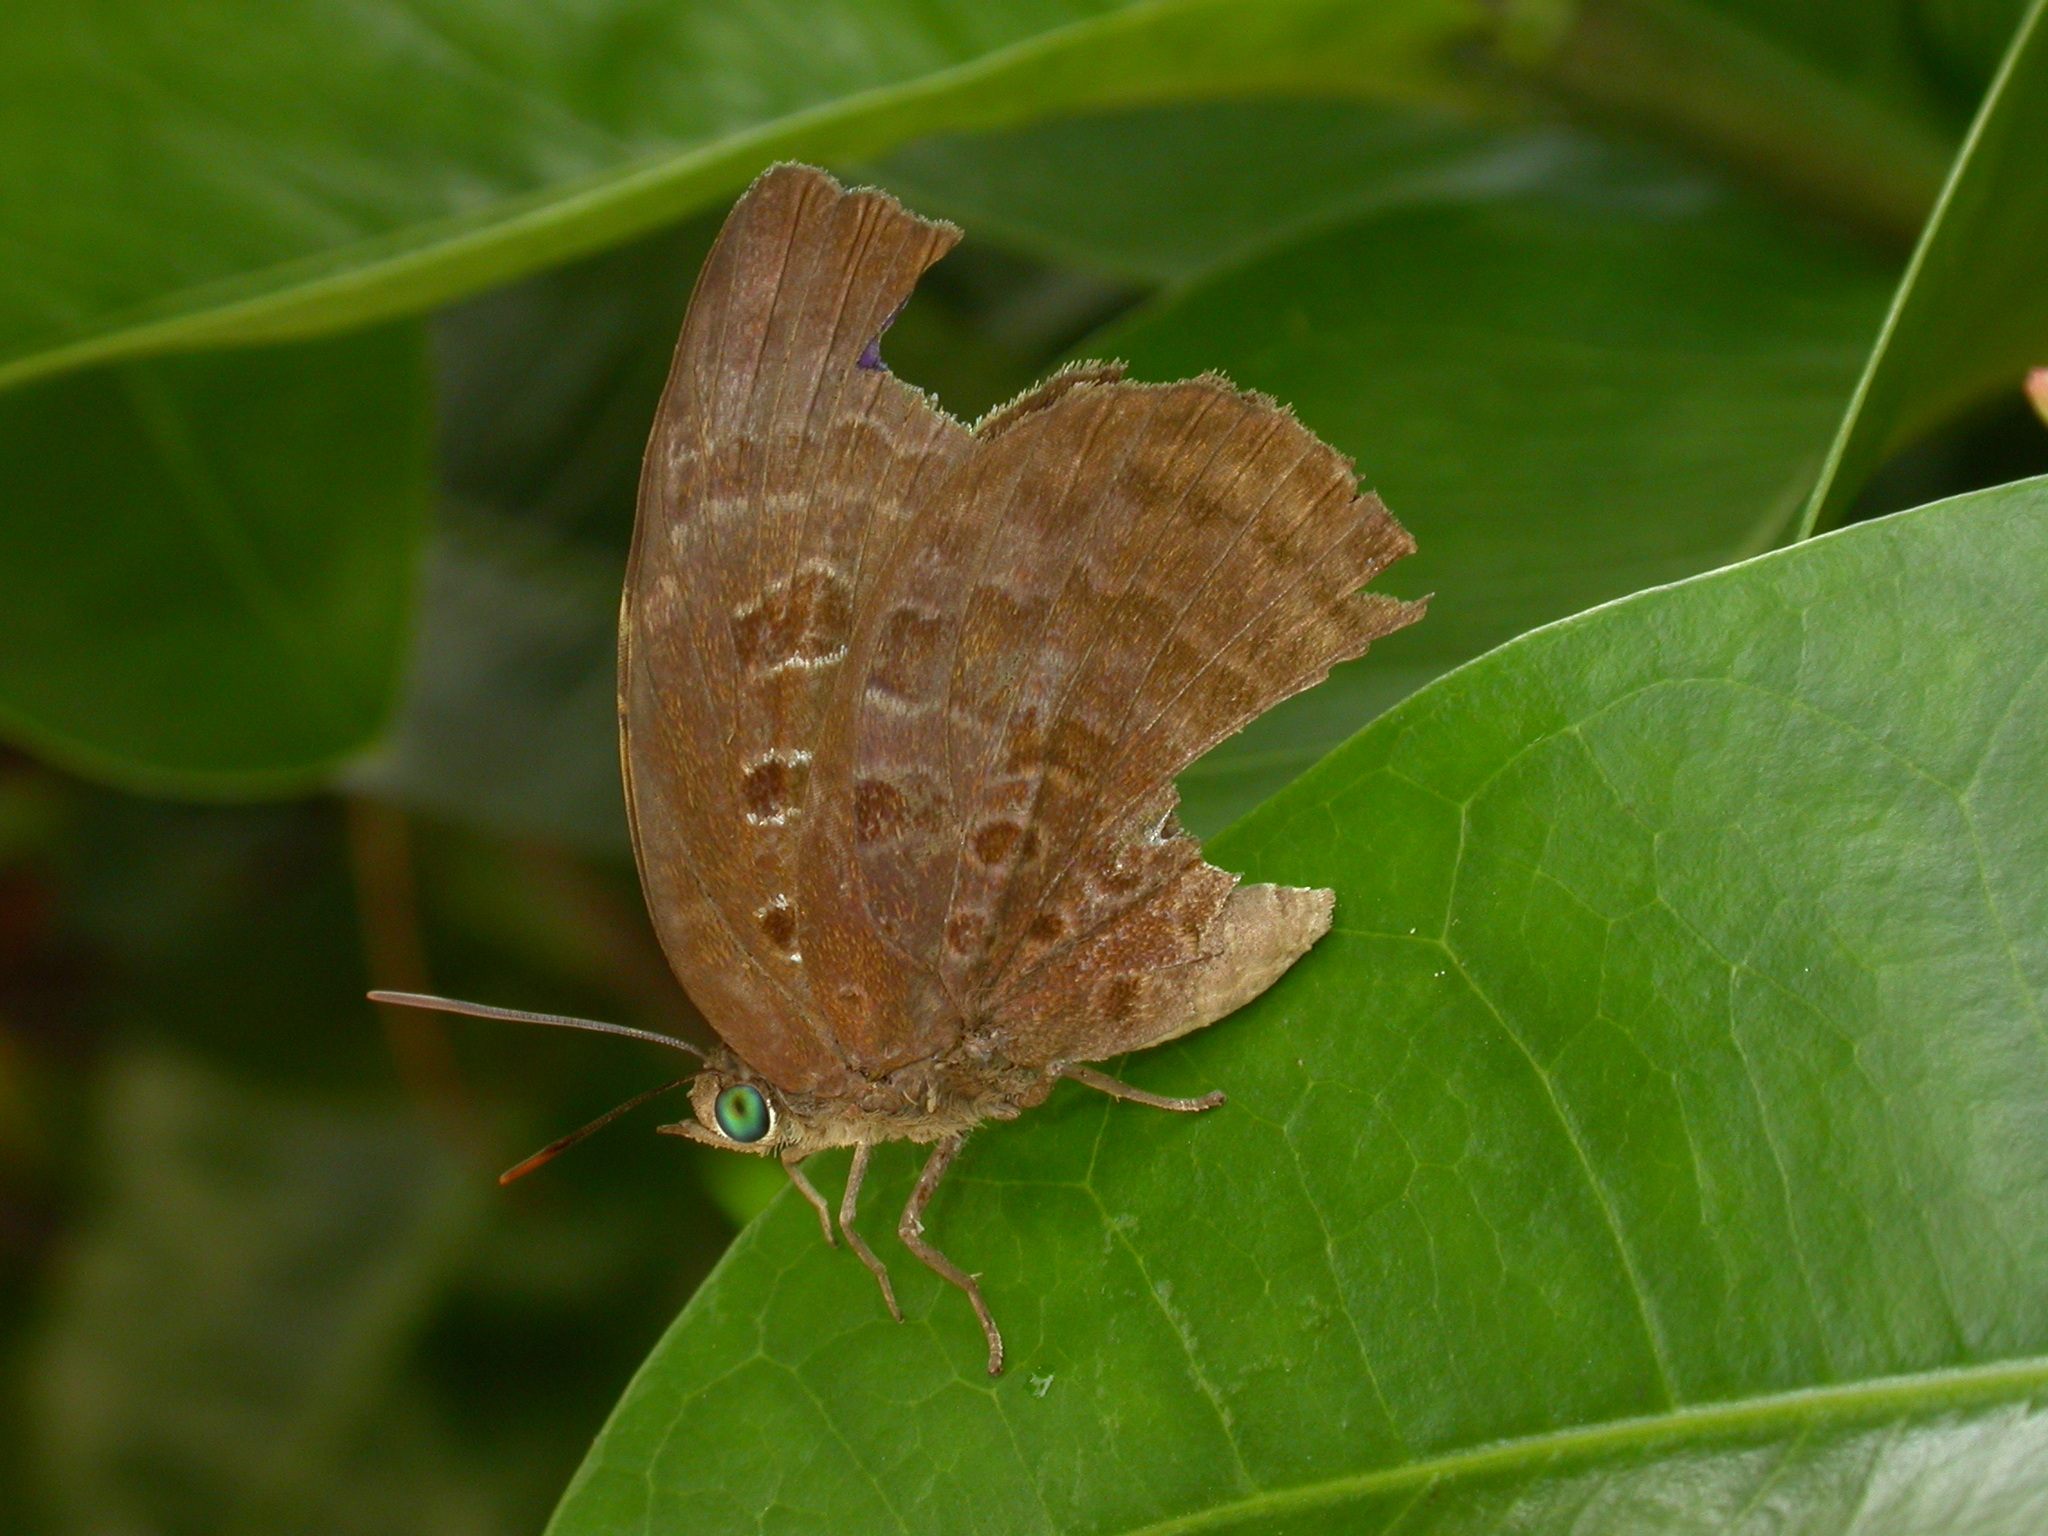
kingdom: Animalia
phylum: Arthropoda
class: Insecta
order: Lepidoptera
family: Lycaenidae
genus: Arhopala
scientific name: Arhopala centaurus
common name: Dull oak-blue
